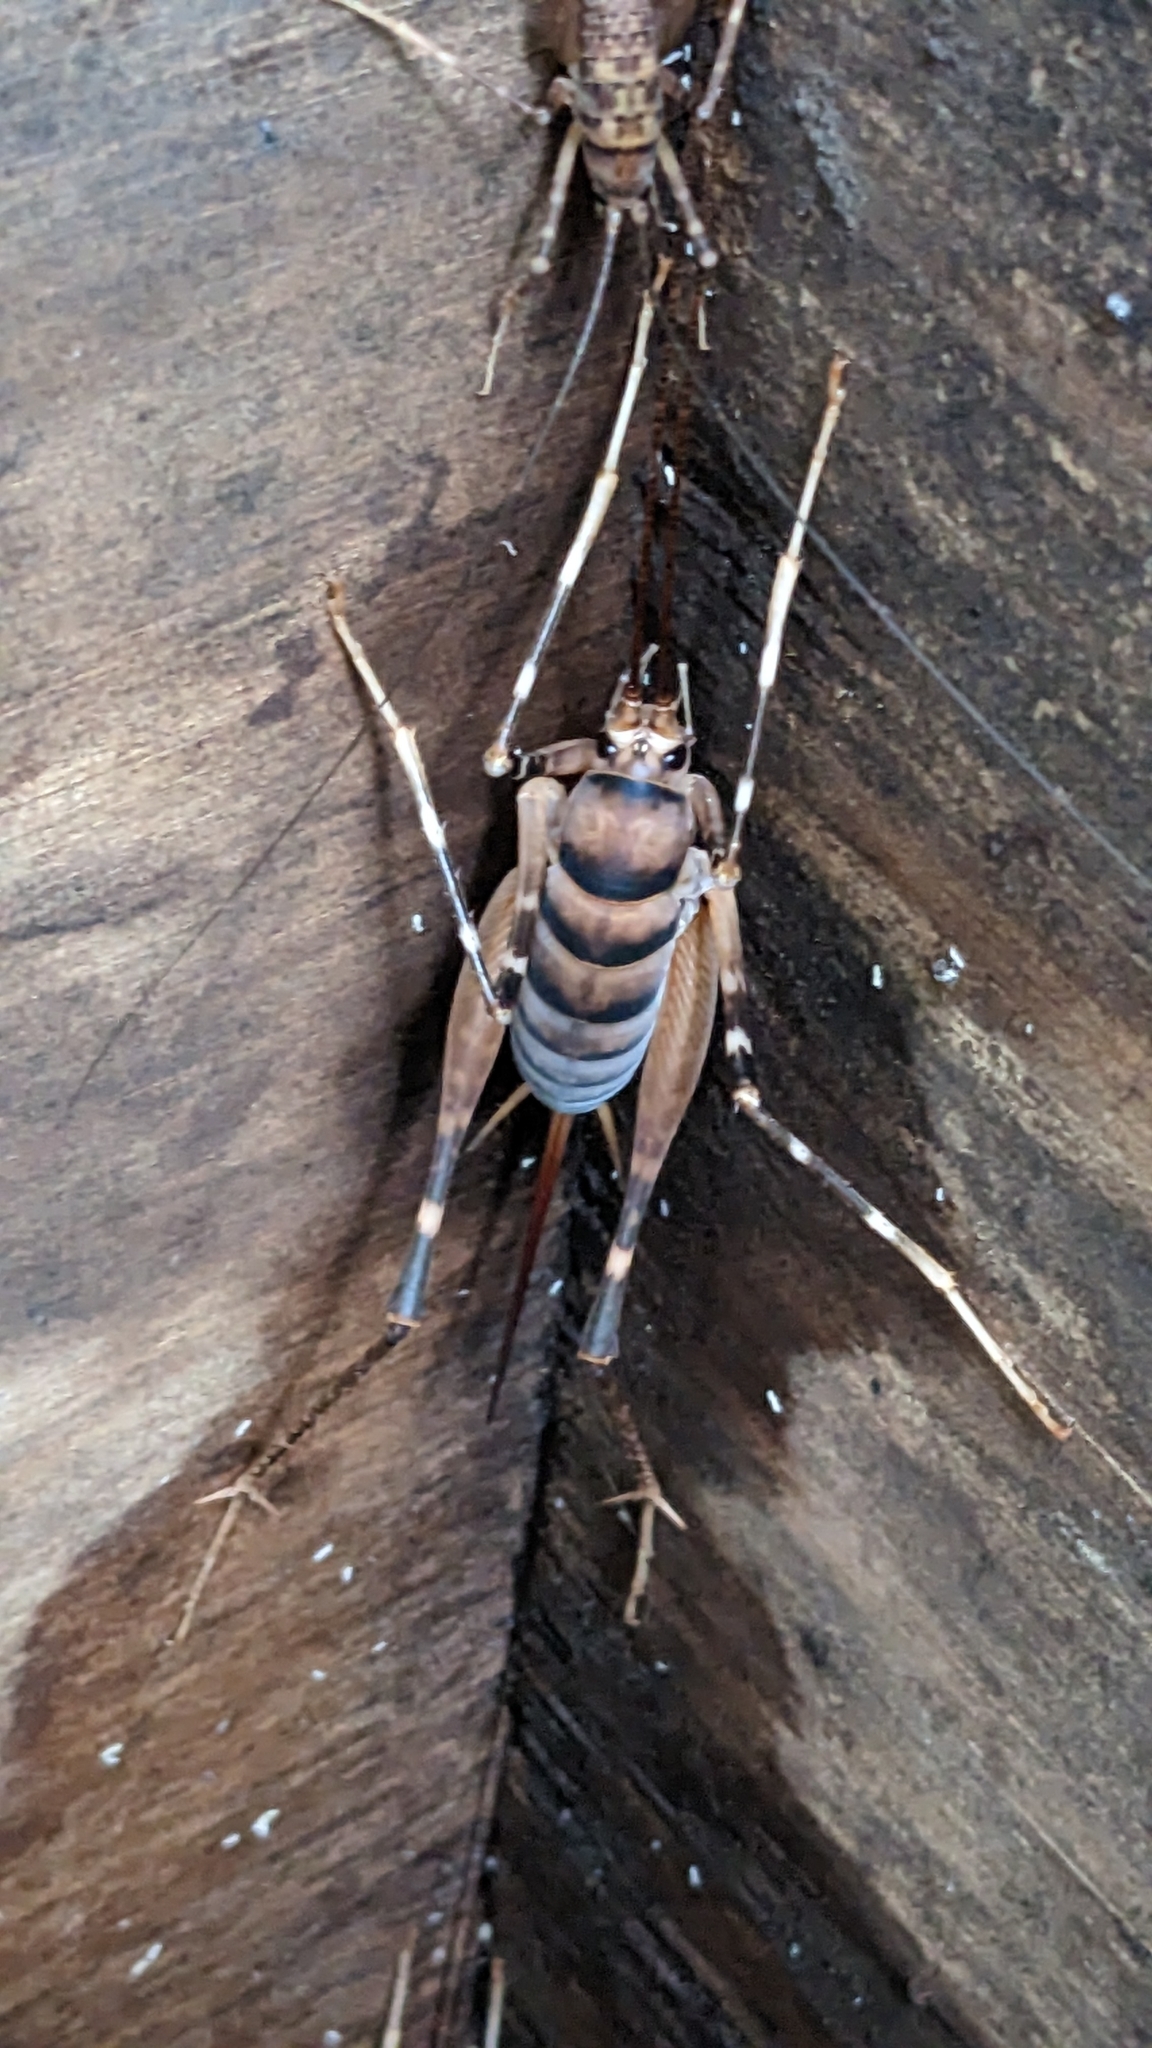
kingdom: Animalia
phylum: Arthropoda
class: Insecta
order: Orthoptera
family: Rhaphidophoridae
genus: Pachyrhamma
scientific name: Pachyrhamma edwardsii
